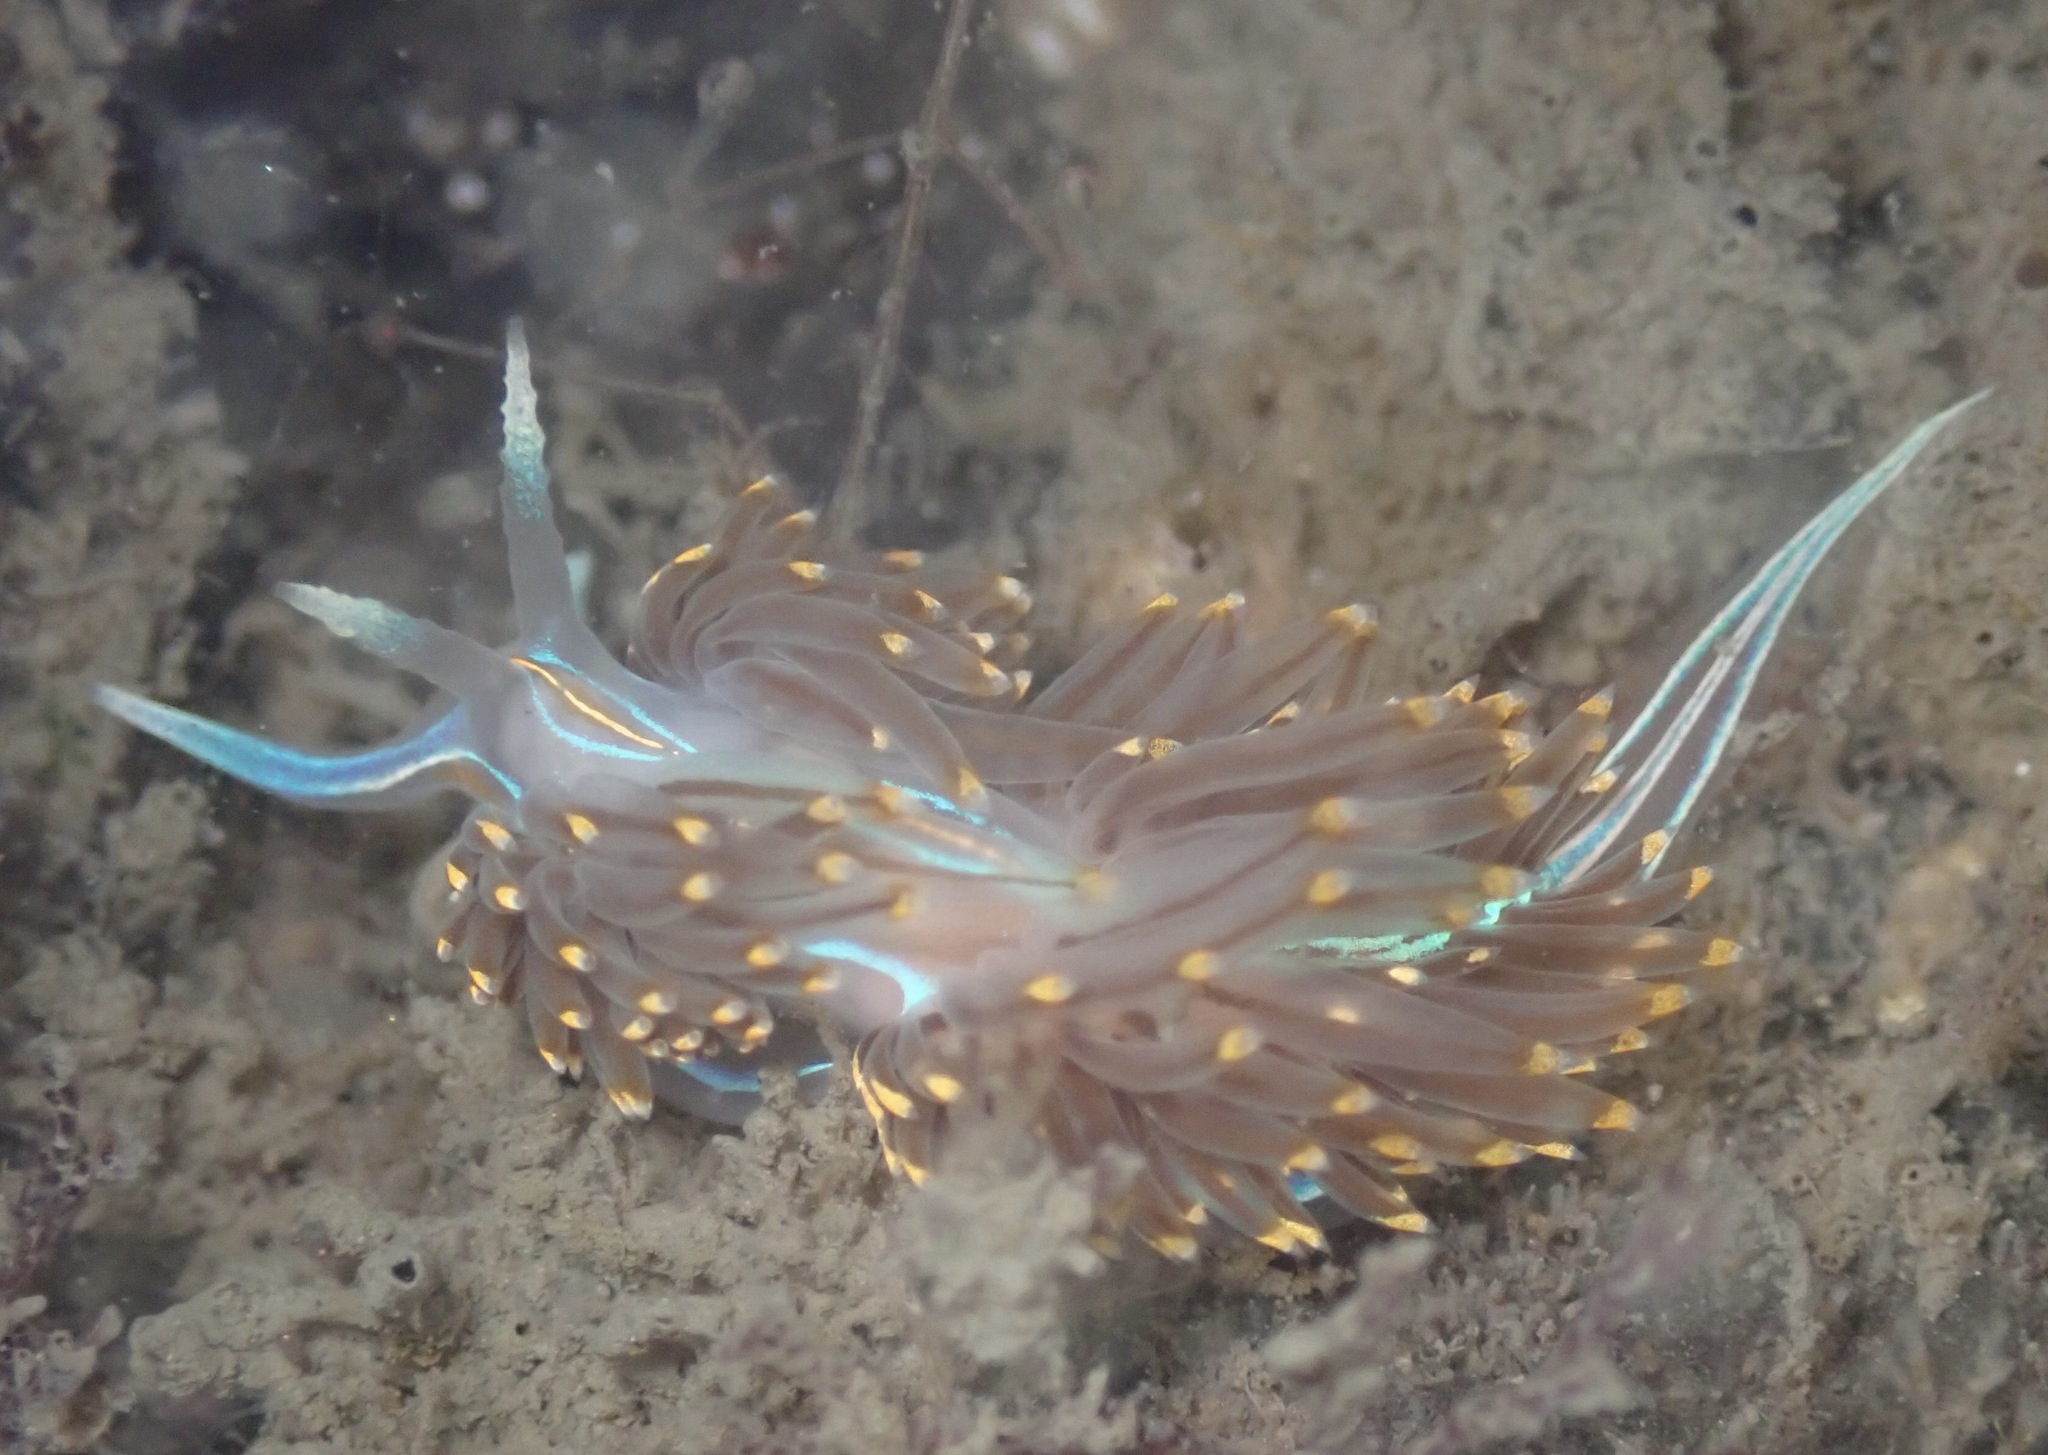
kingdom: Animalia
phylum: Mollusca
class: Gastropoda
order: Nudibranchia
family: Myrrhinidae
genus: Hermissenda
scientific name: Hermissenda opalescens
